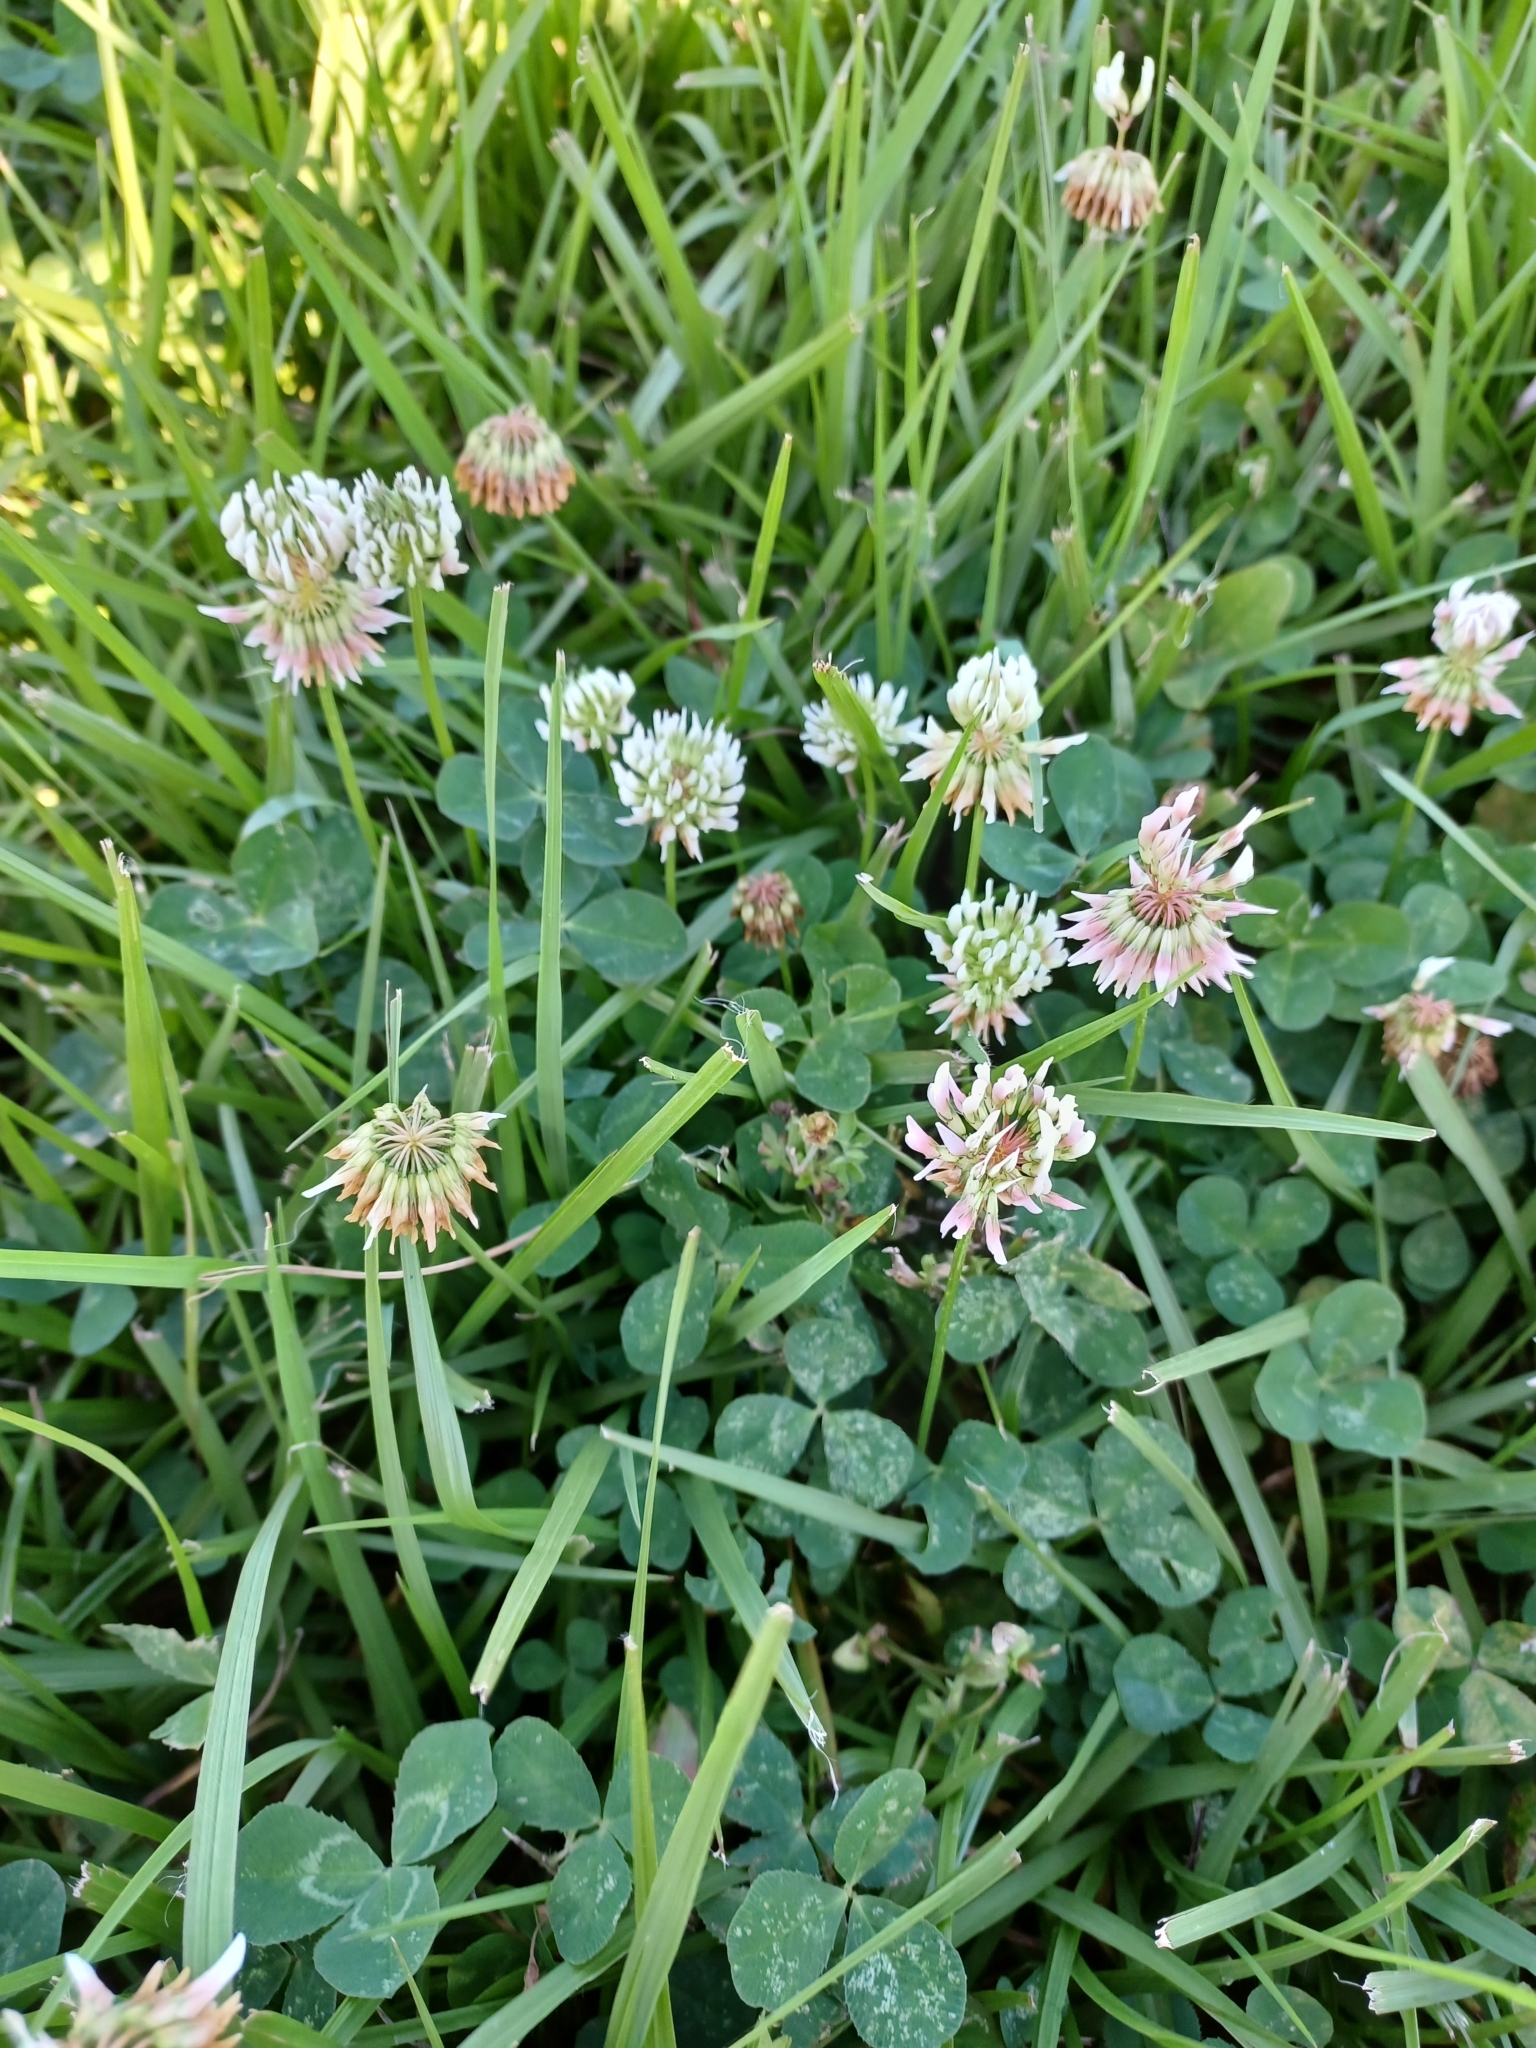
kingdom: Plantae
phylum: Tracheophyta
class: Magnoliopsida
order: Fabales
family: Fabaceae
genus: Trifolium
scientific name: Trifolium repens
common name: White clover
